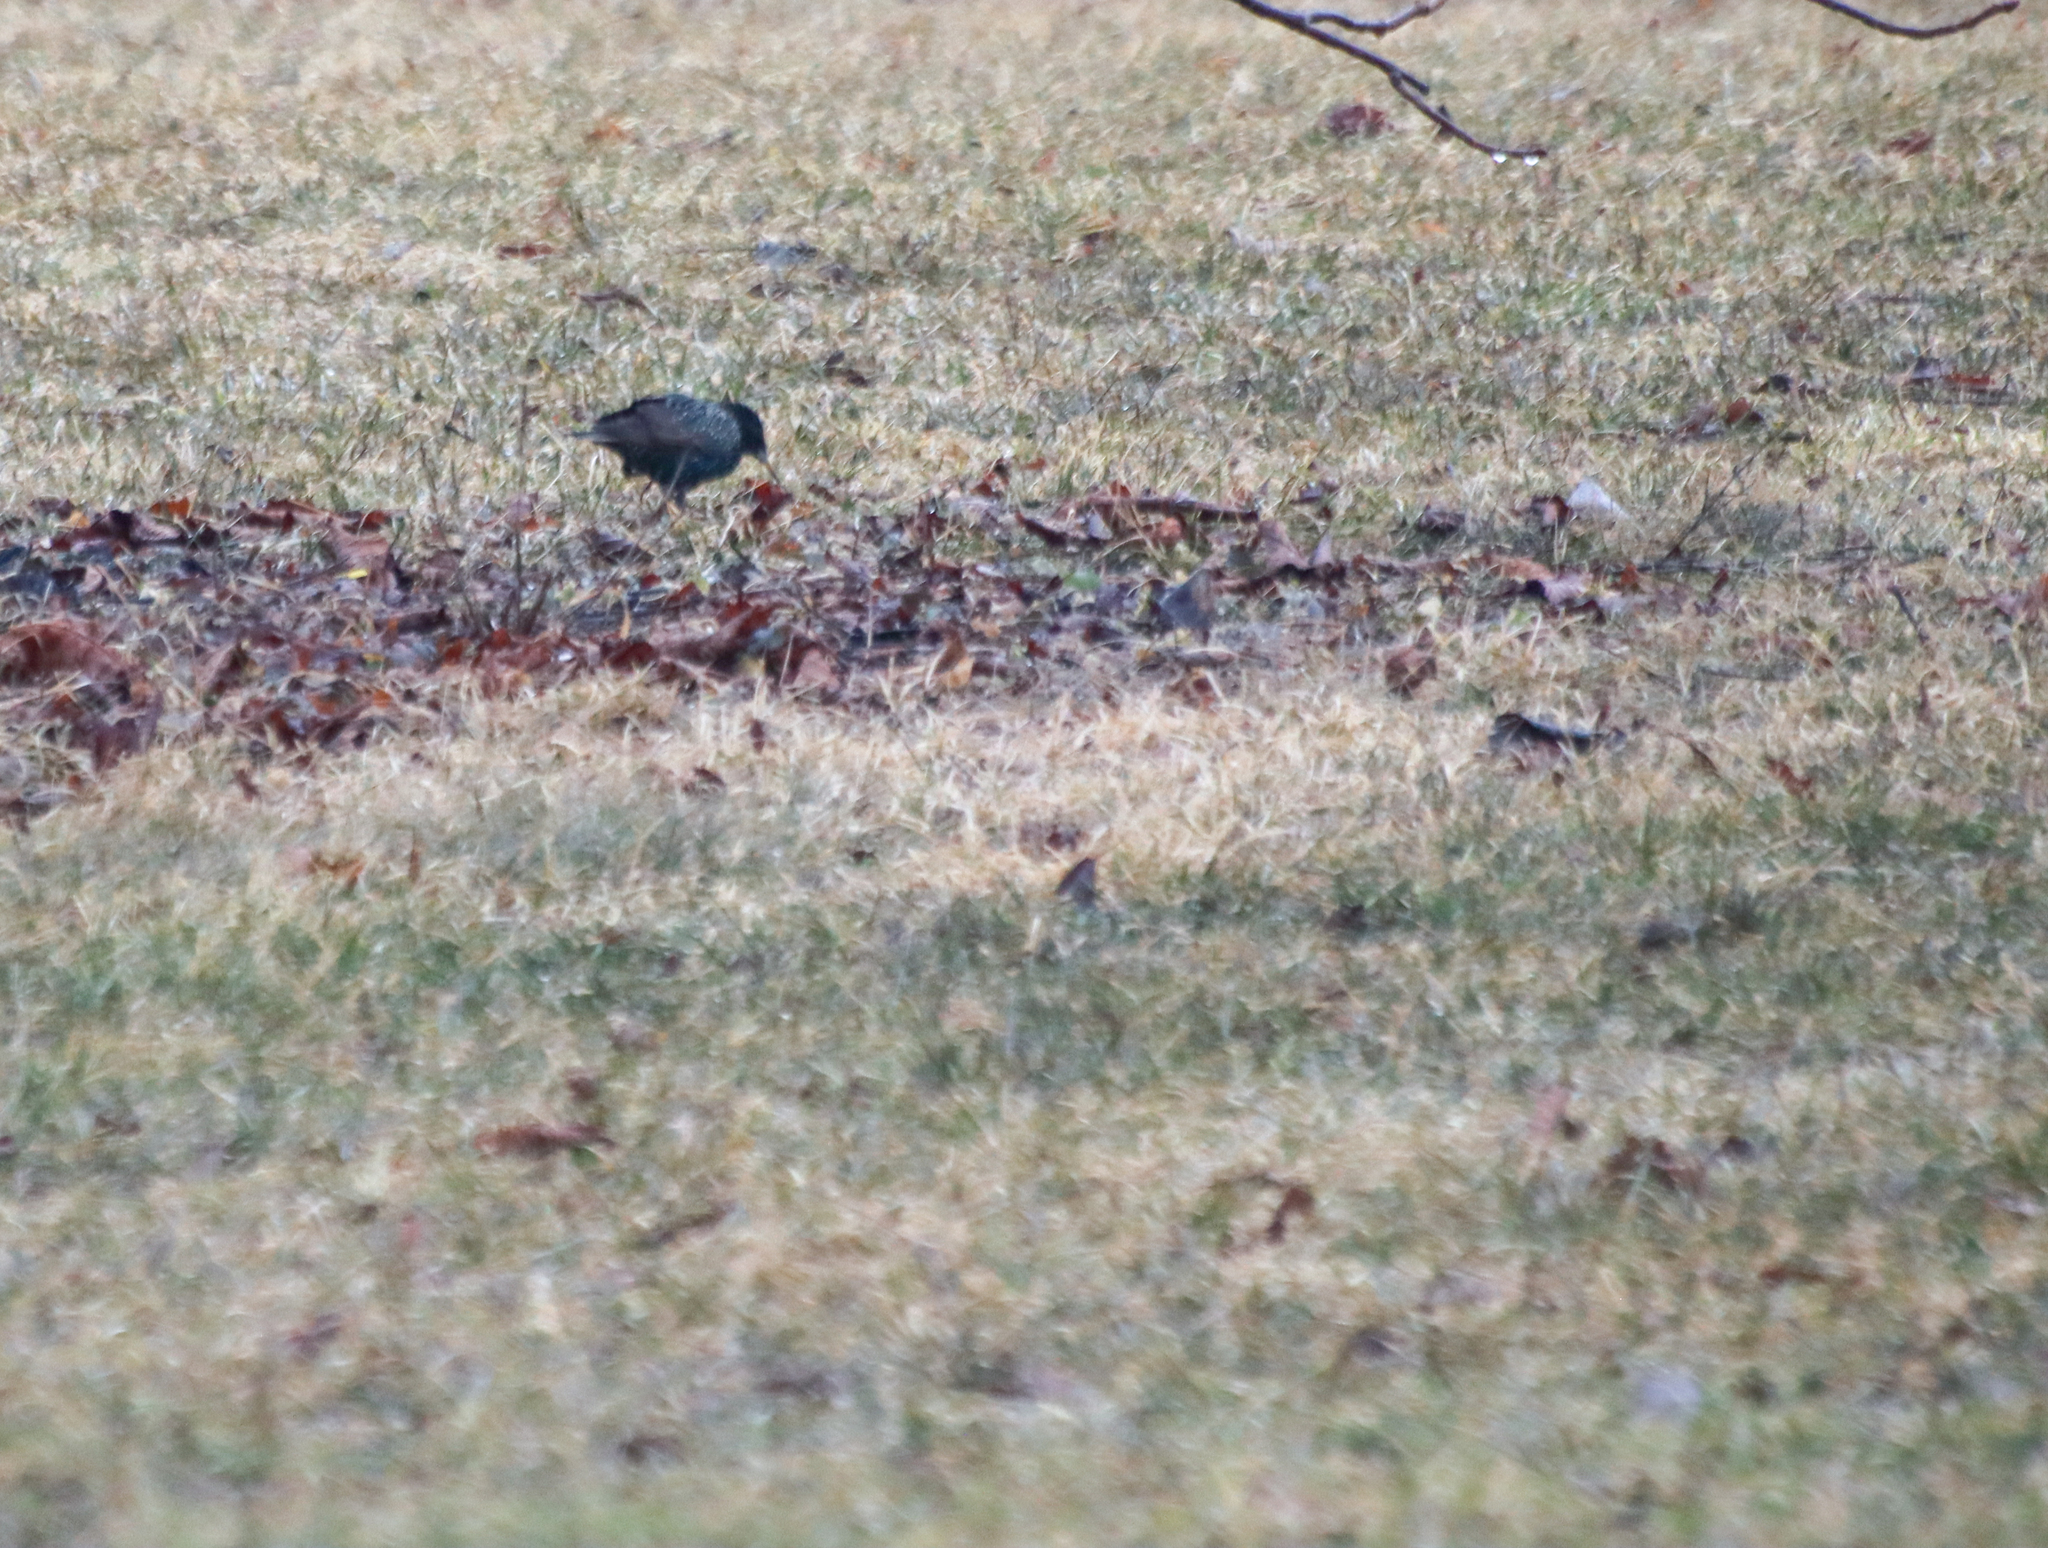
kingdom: Animalia
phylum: Chordata
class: Aves
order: Passeriformes
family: Sturnidae
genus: Sturnus
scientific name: Sturnus vulgaris
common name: Common starling
